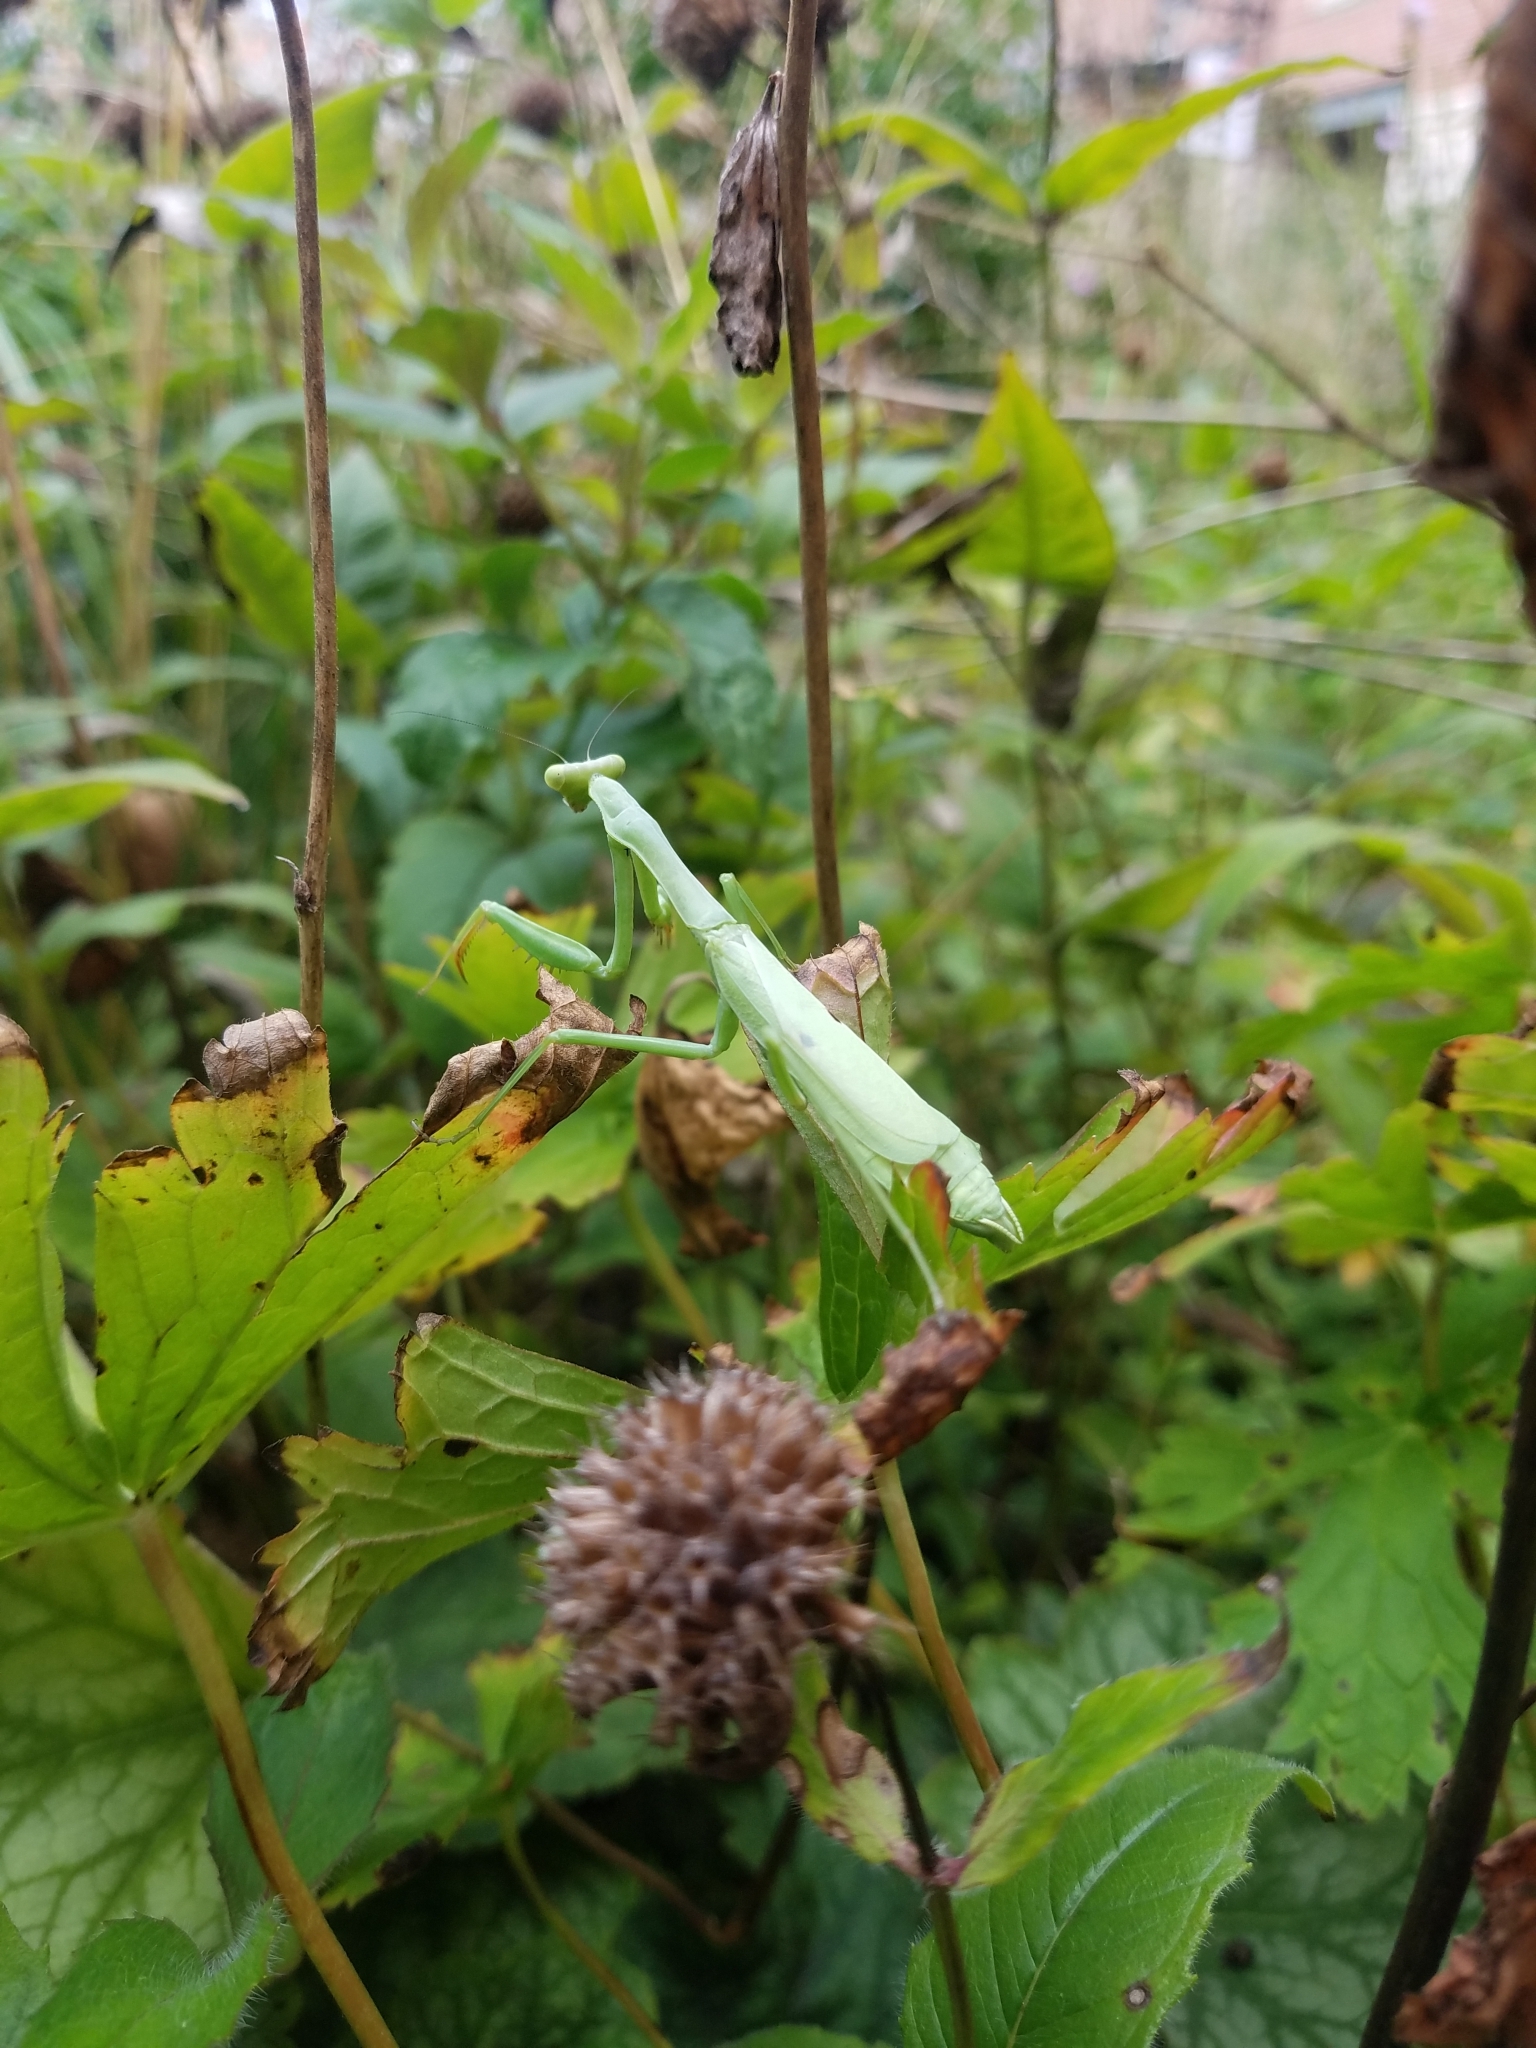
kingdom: Animalia
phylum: Arthropoda
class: Insecta
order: Mantodea
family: Mantidae
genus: Stagmomantis
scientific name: Stagmomantis carolina
